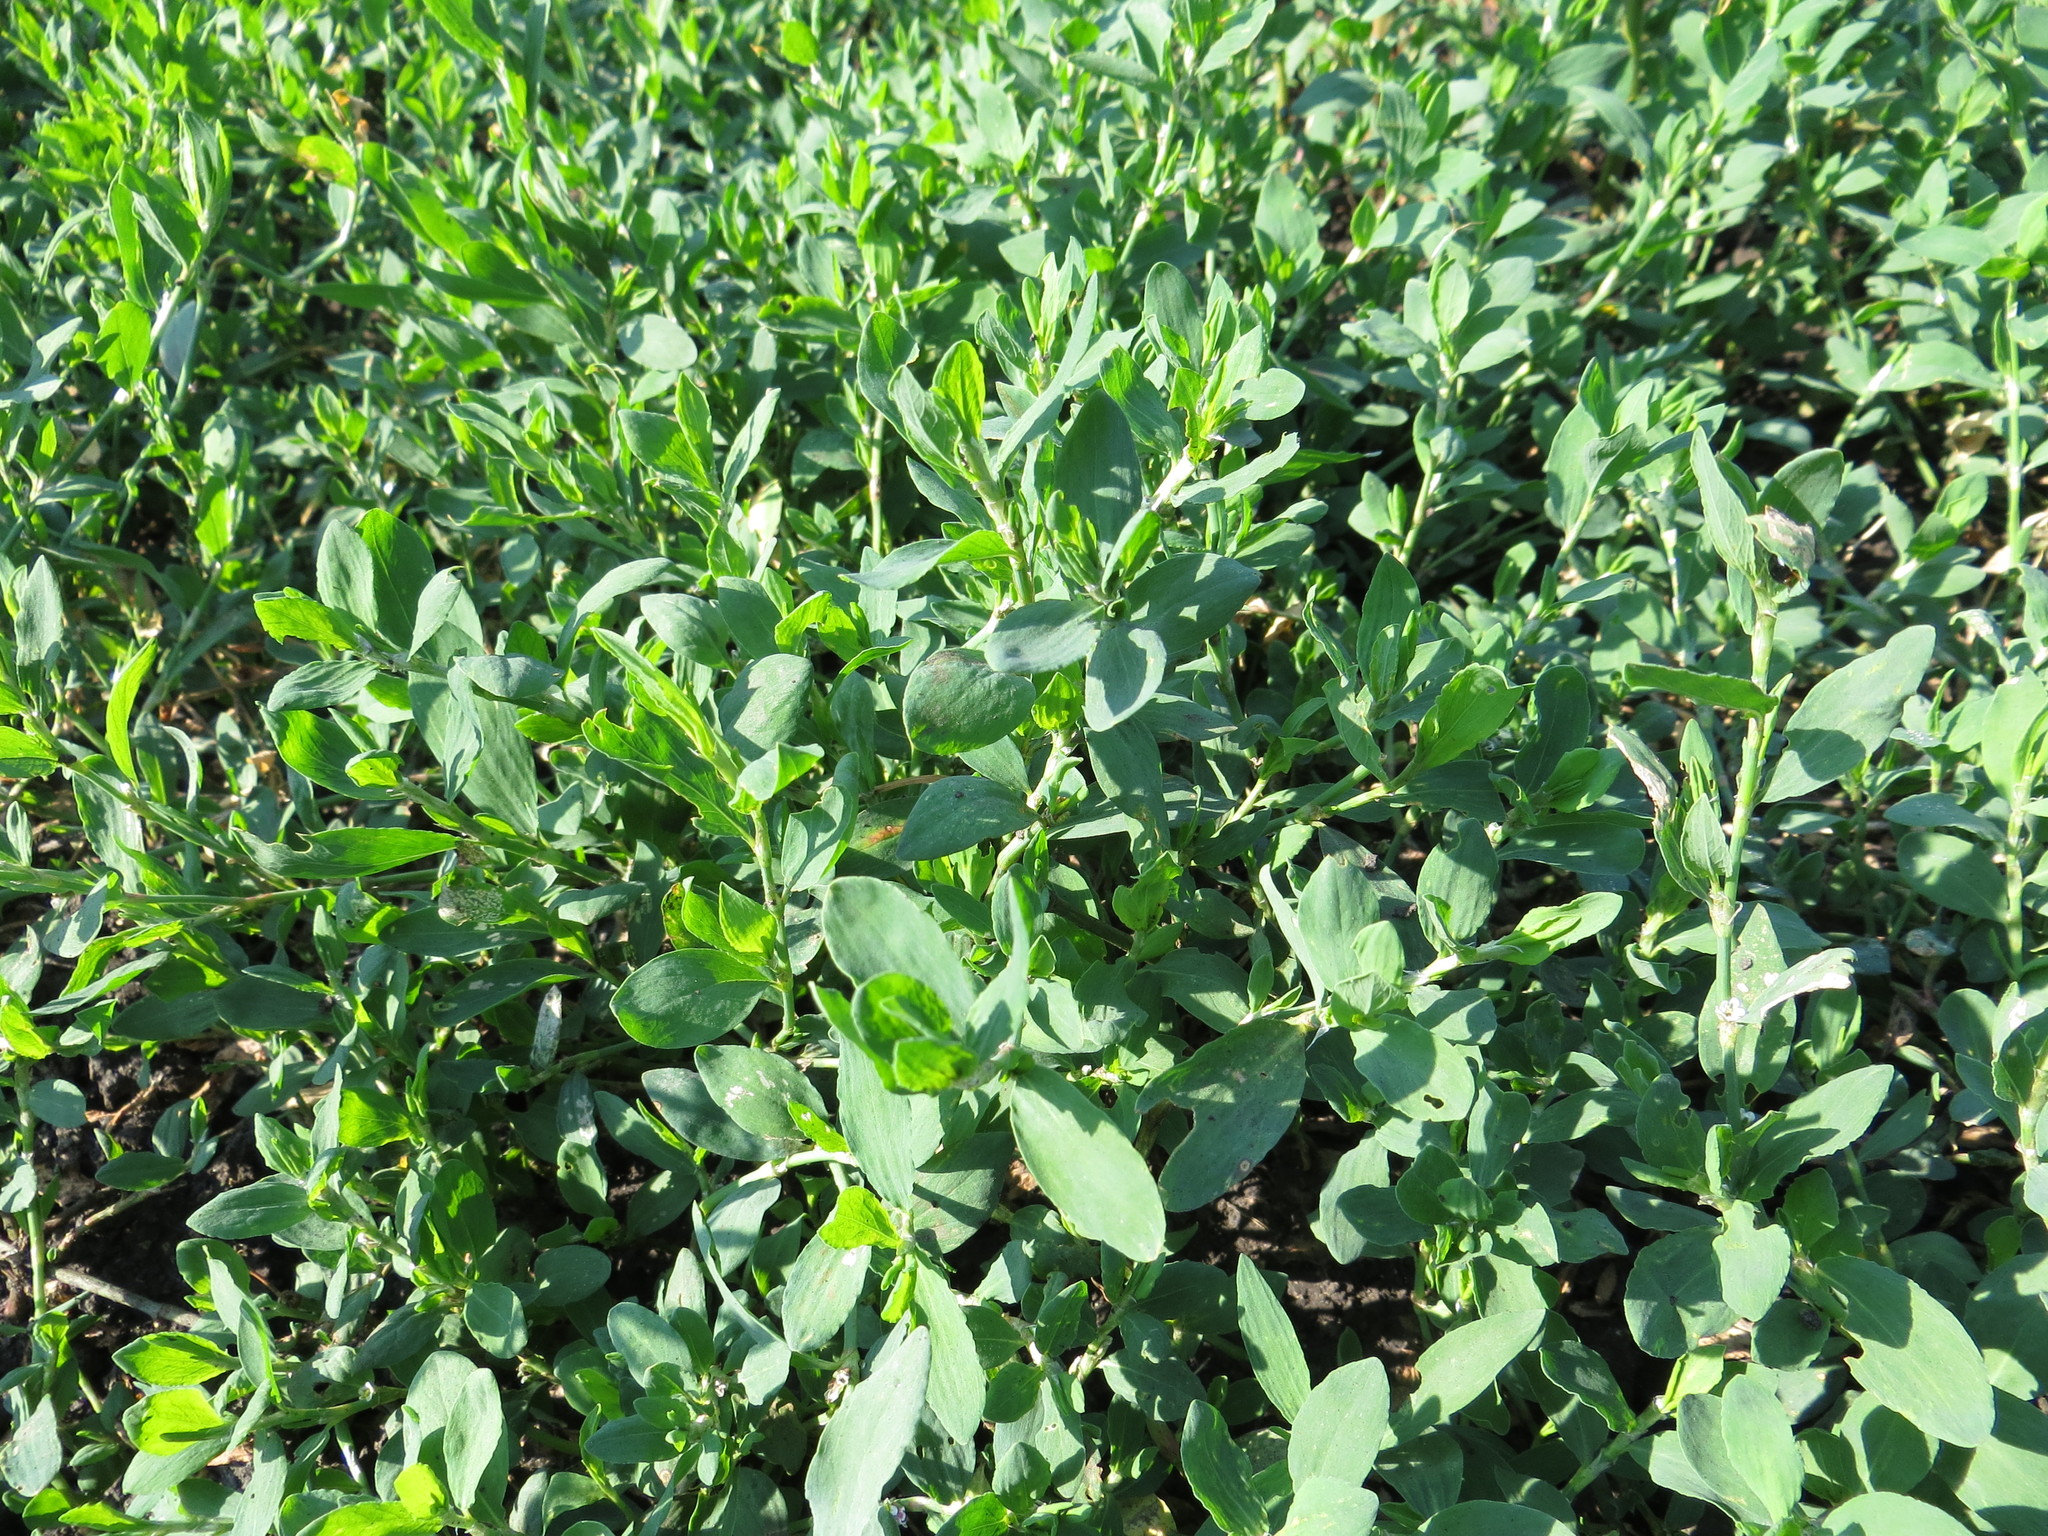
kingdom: Plantae
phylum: Tracheophyta
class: Magnoliopsida
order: Caryophyllales
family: Polygonaceae
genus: Polygonum
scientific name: Polygonum
